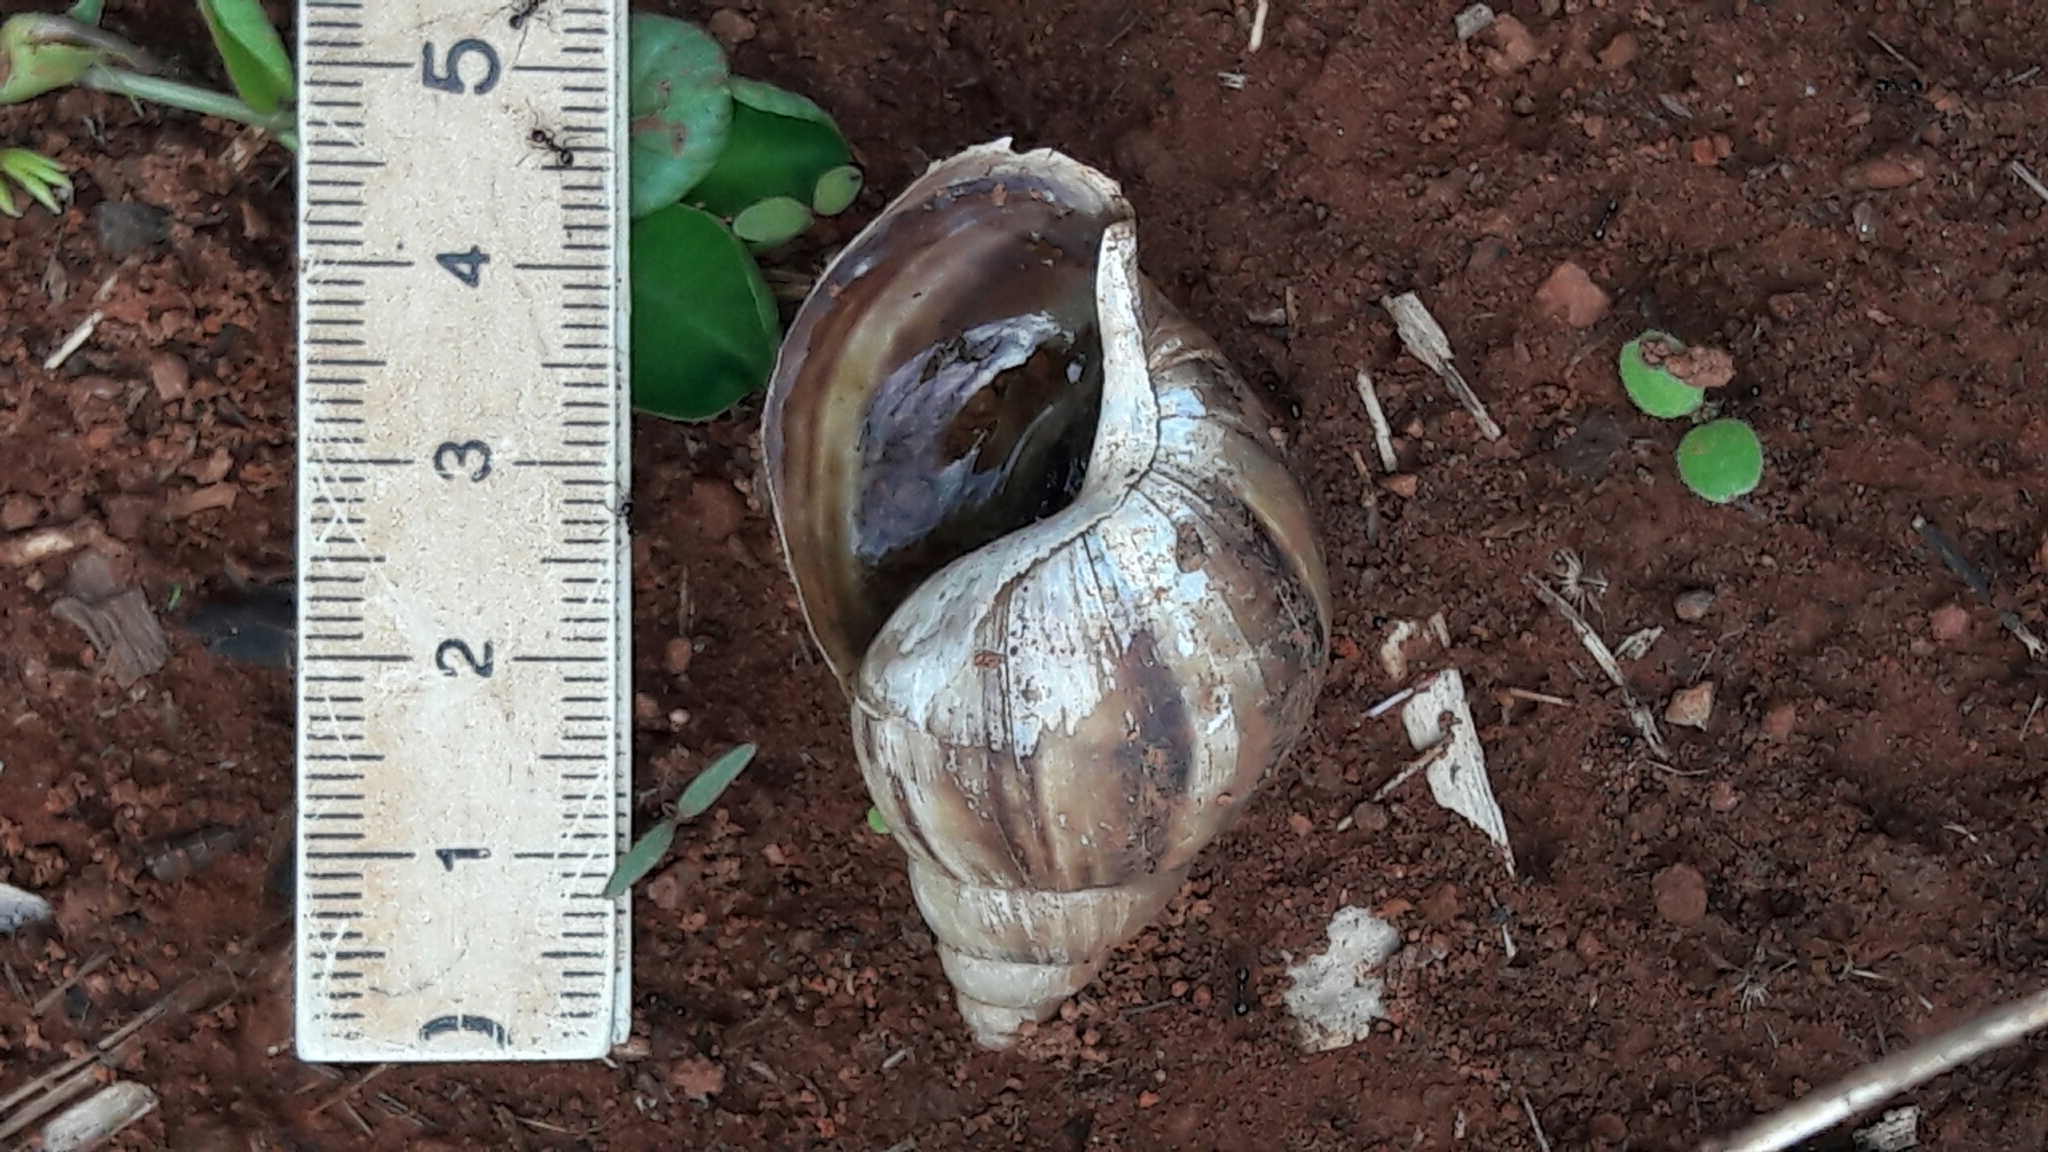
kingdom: Animalia
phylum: Mollusca
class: Gastropoda
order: Stylommatophora
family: Achatinidae
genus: Lissachatina
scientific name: Lissachatina fulica
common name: Giant african snail
